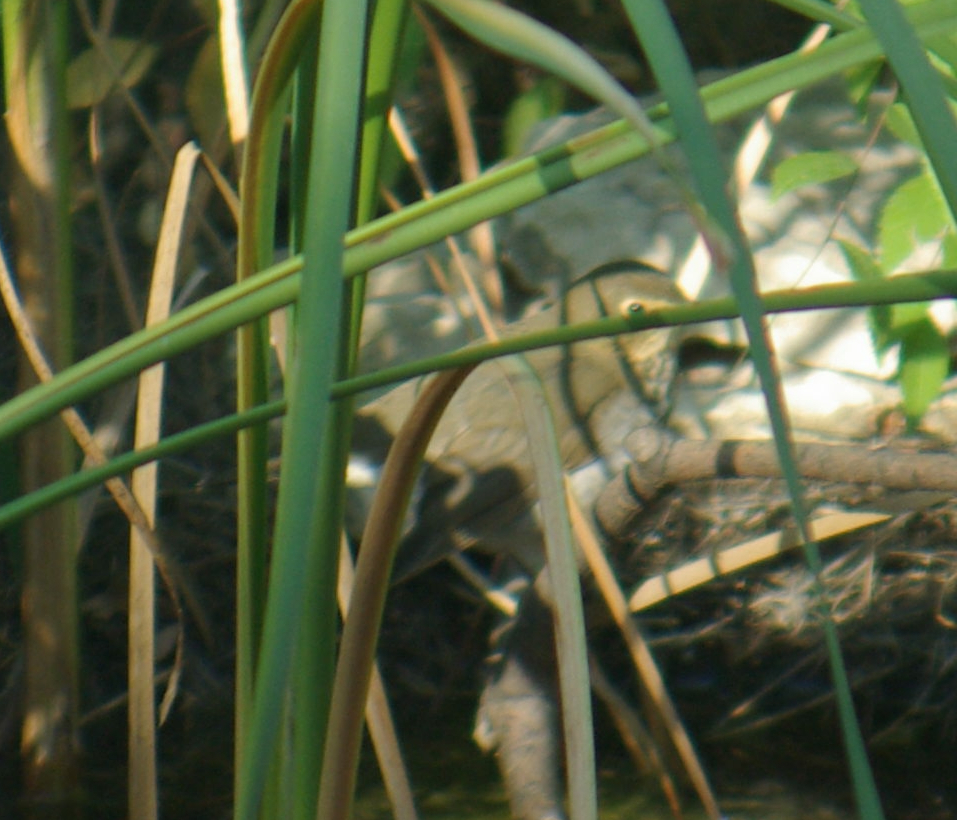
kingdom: Animalia
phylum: Chordata
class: Aves
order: Passeriformes
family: Turdidae
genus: Catharus
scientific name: Catharus ustulatus
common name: Swainson's thrush
